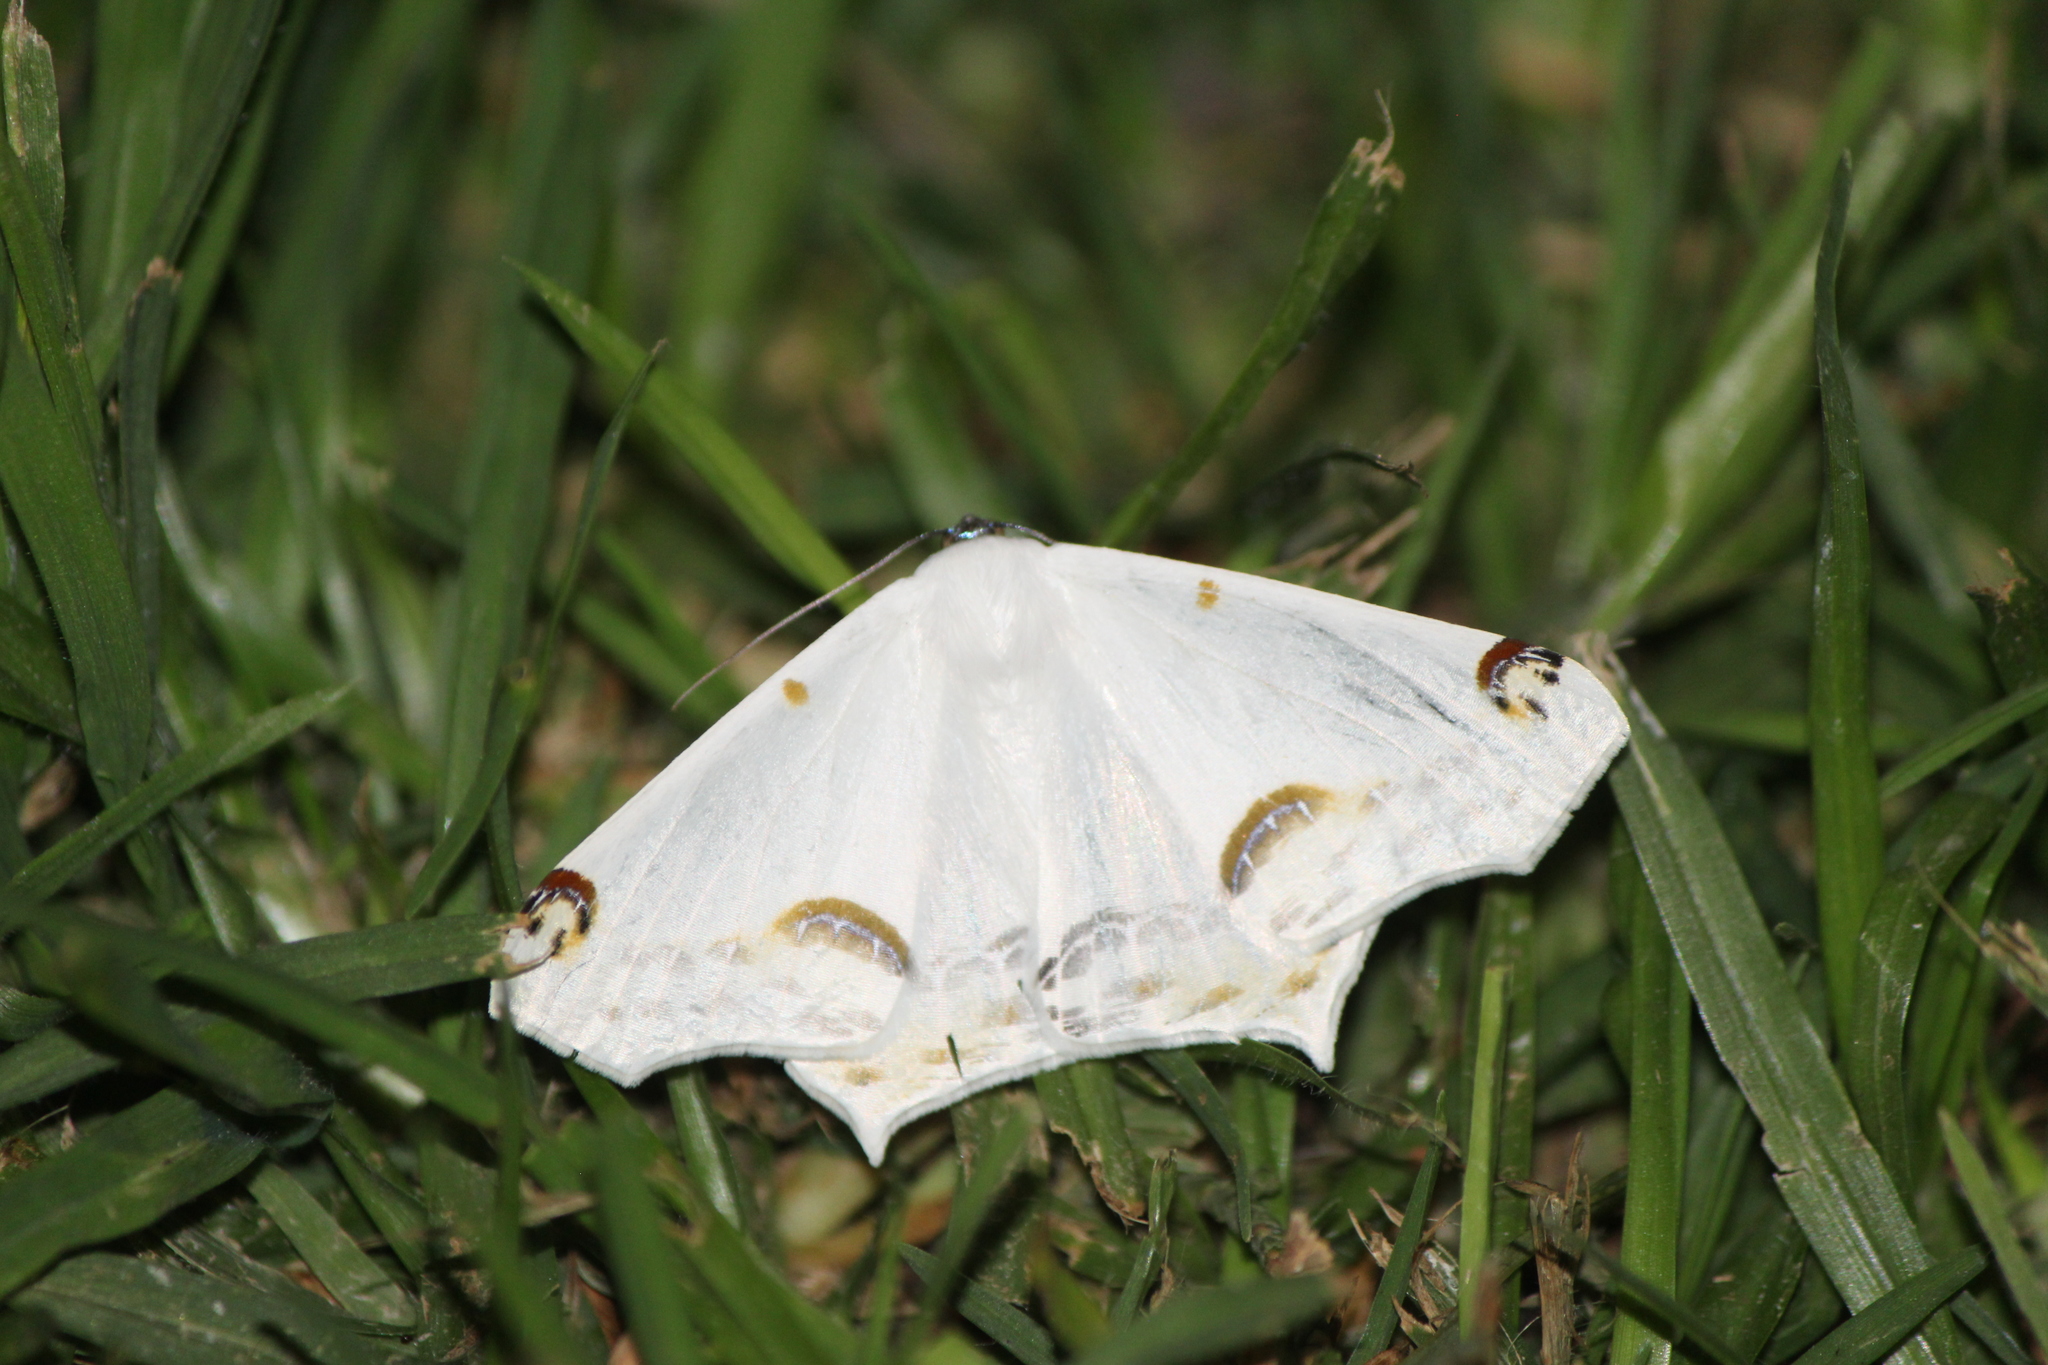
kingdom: Animalia
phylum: Arthropoda
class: Insecta
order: Lepidoptera
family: Geometridae
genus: Sericoptera
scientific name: Sericoptera mahometaria
